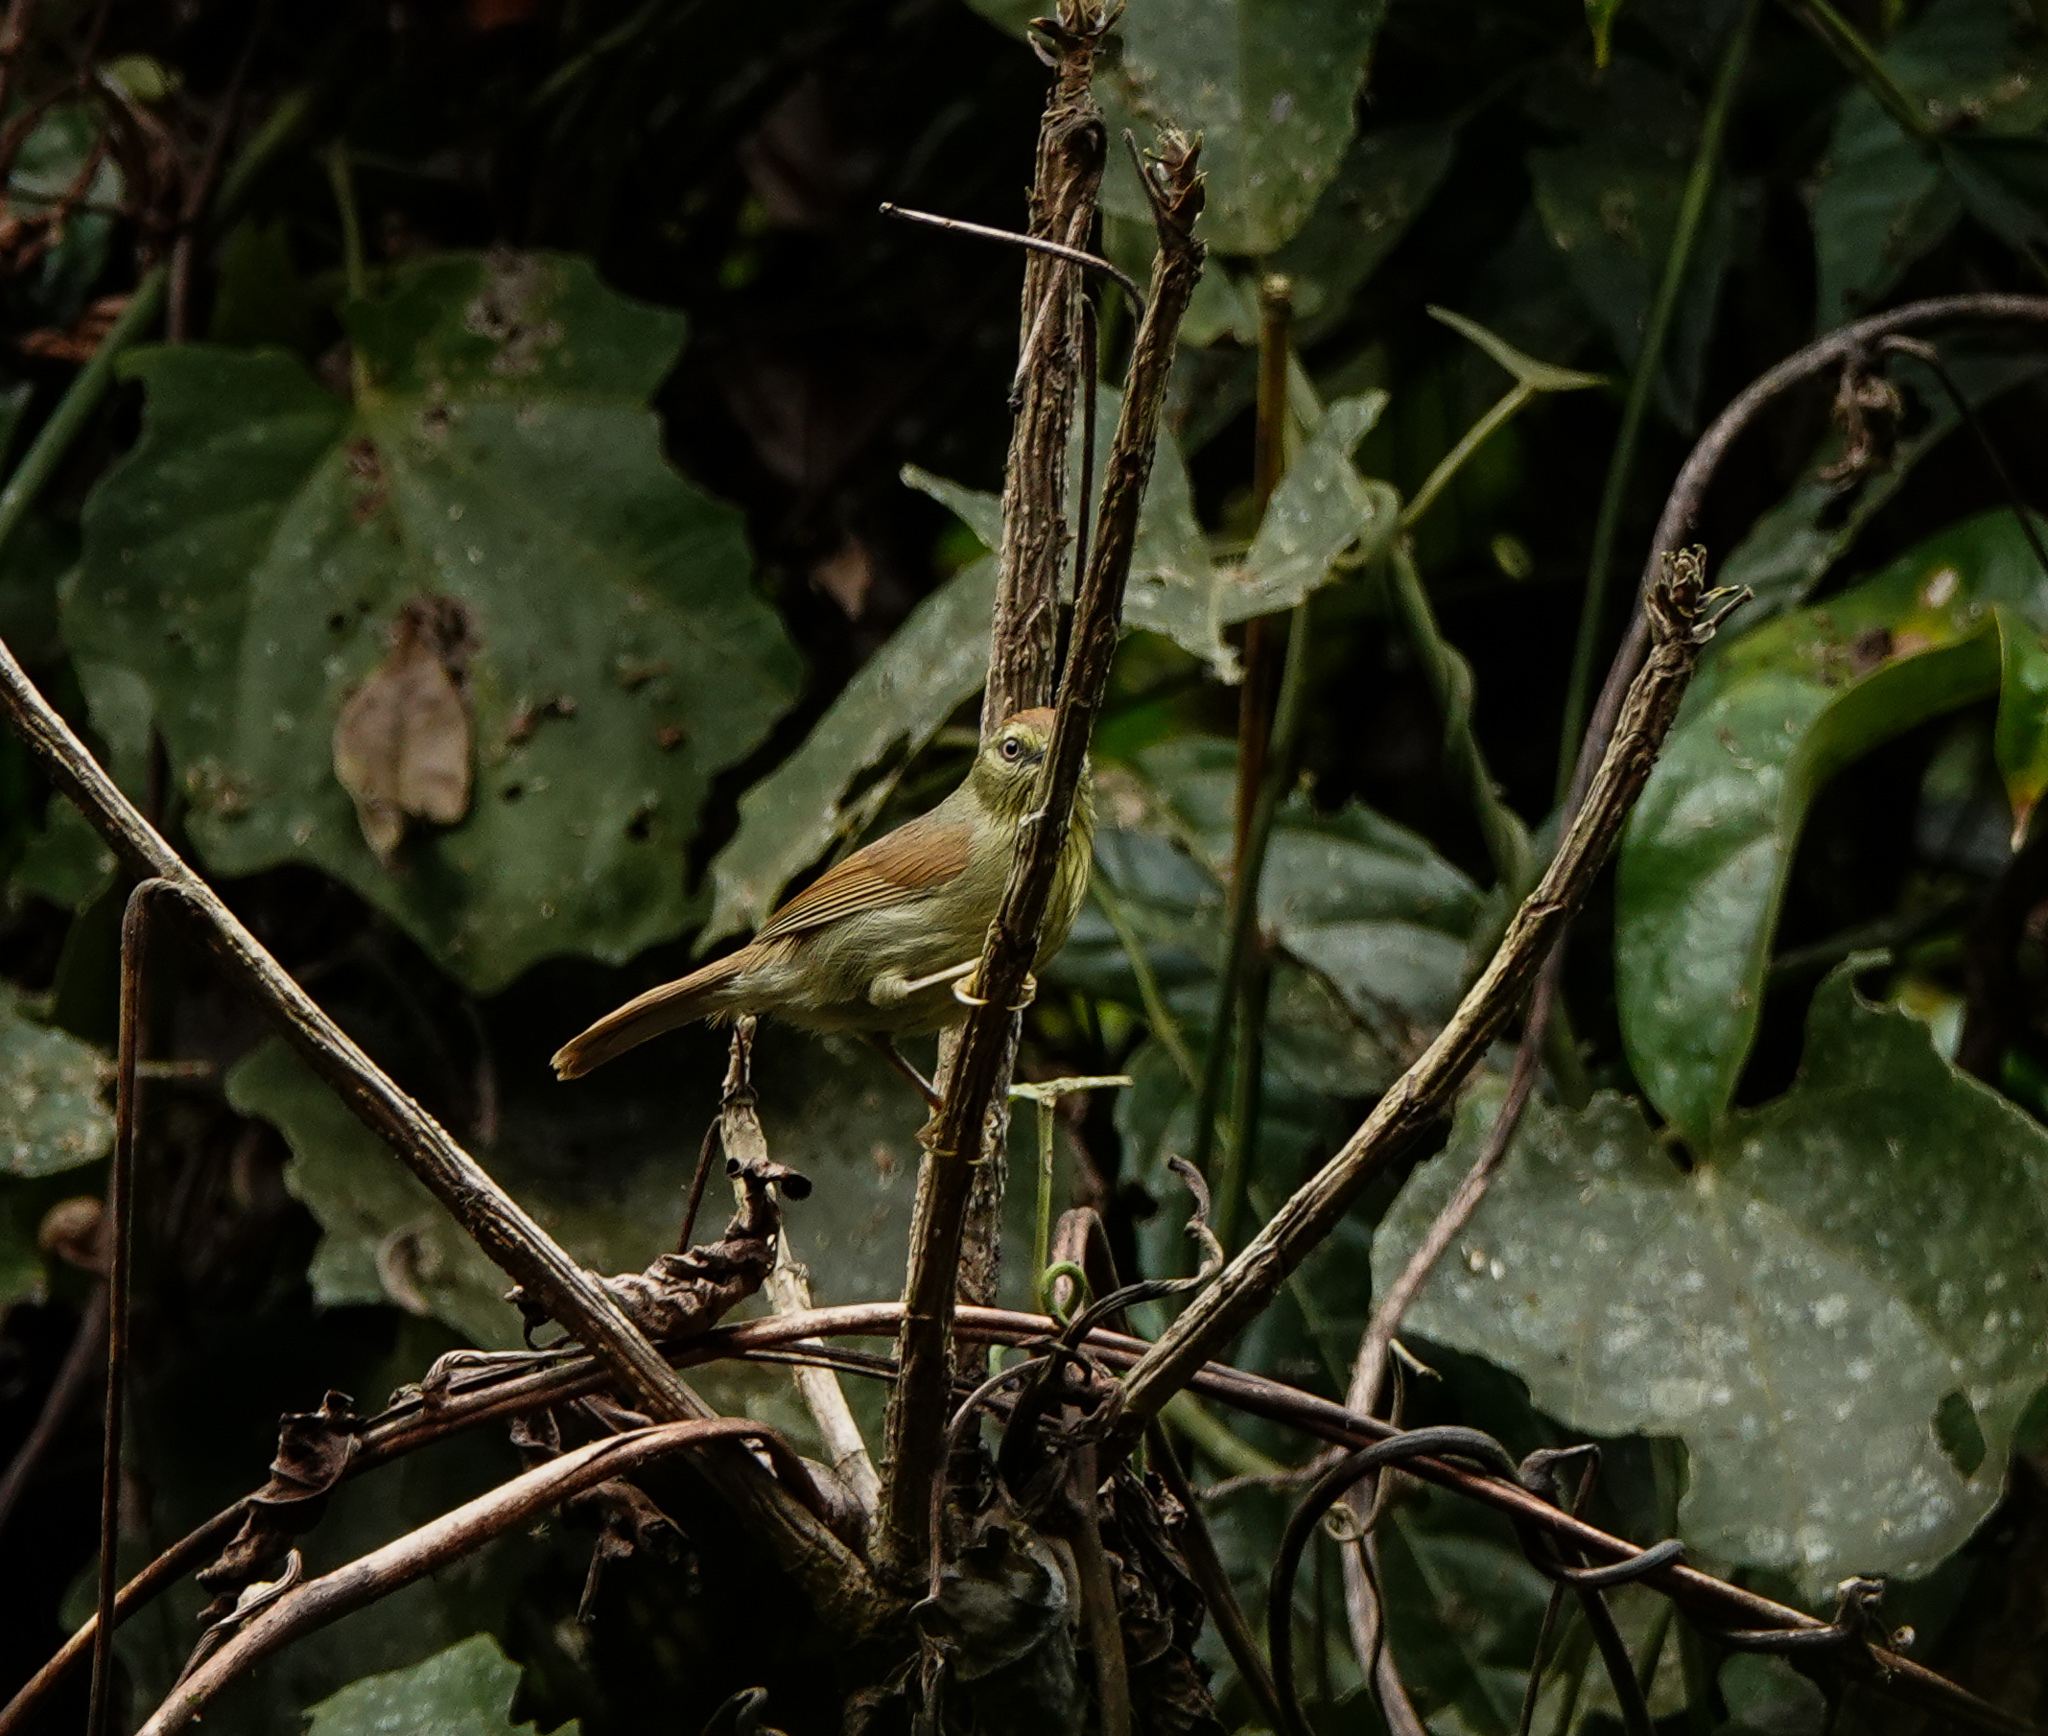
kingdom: Animalia
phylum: Chordata
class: Aves
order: Passeriformes
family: Timaliidae
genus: Macronus
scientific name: Macronus gularis
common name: Striped tit-babbler
